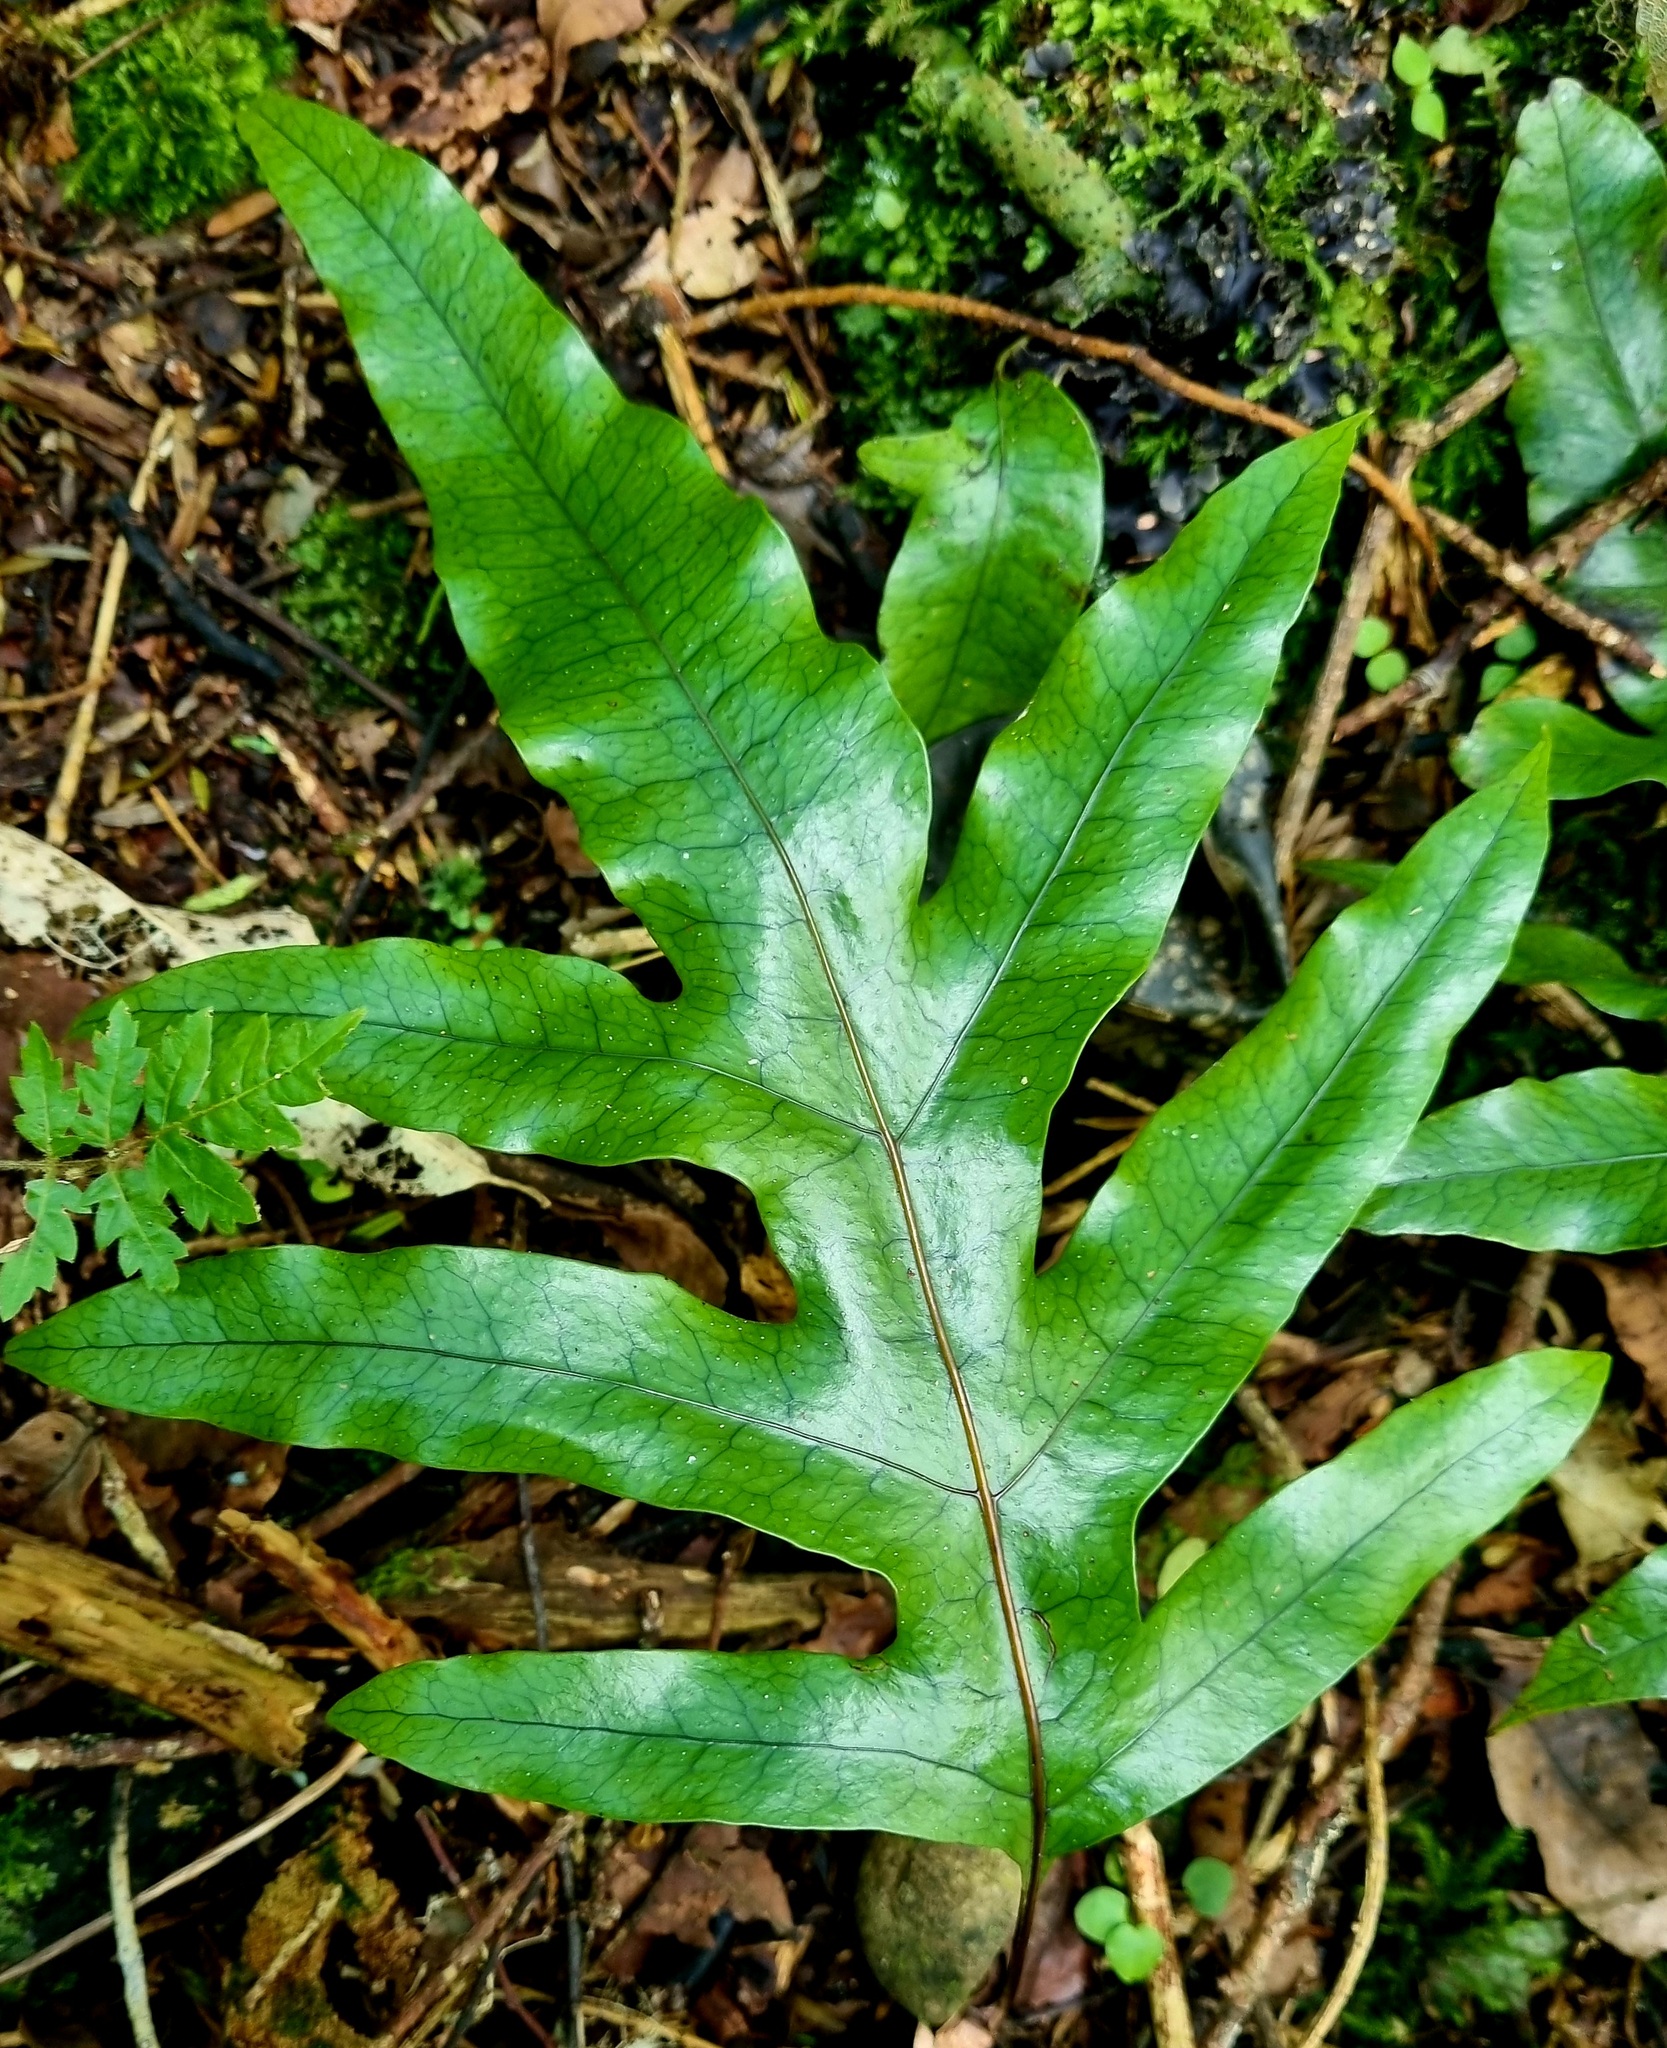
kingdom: Plantae
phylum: Tracheophyta
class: Polypodiopsida
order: Polypodiales
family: Polypodiaceae
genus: Lecanopteris
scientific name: Lecanopteris pustulata
